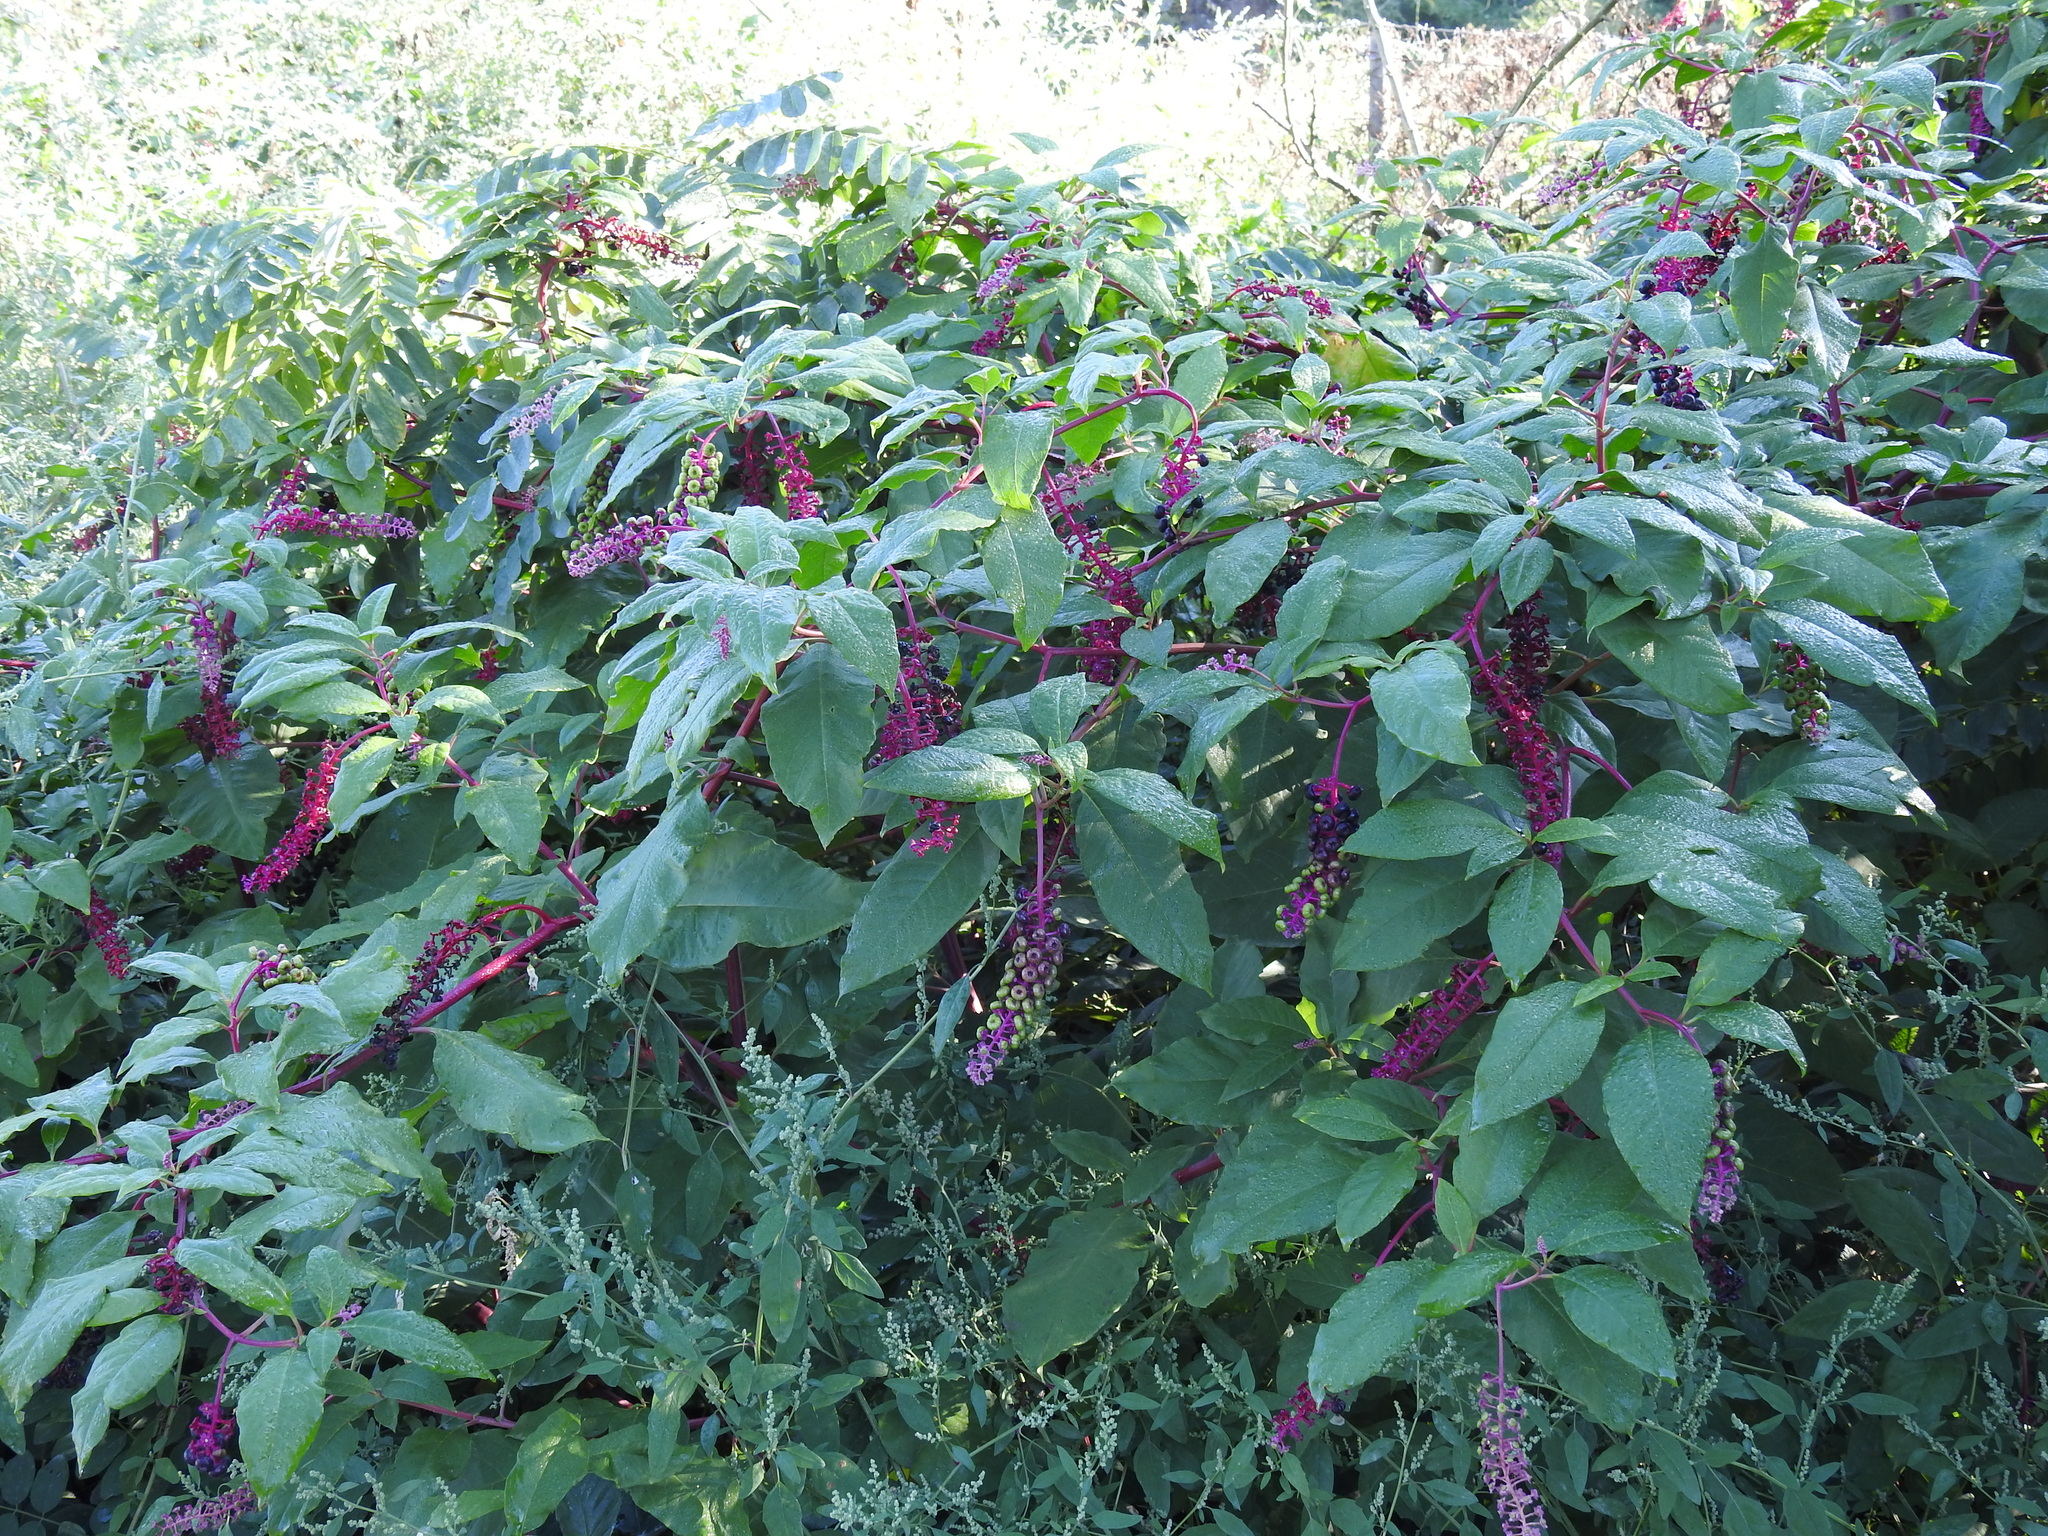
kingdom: Plantae
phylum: Tracheophyta
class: Magnoliopsida
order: Caryophyllales
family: Phytolaccaceae
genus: Phytolacca
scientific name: Phytolacca americana
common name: American pokeweed
